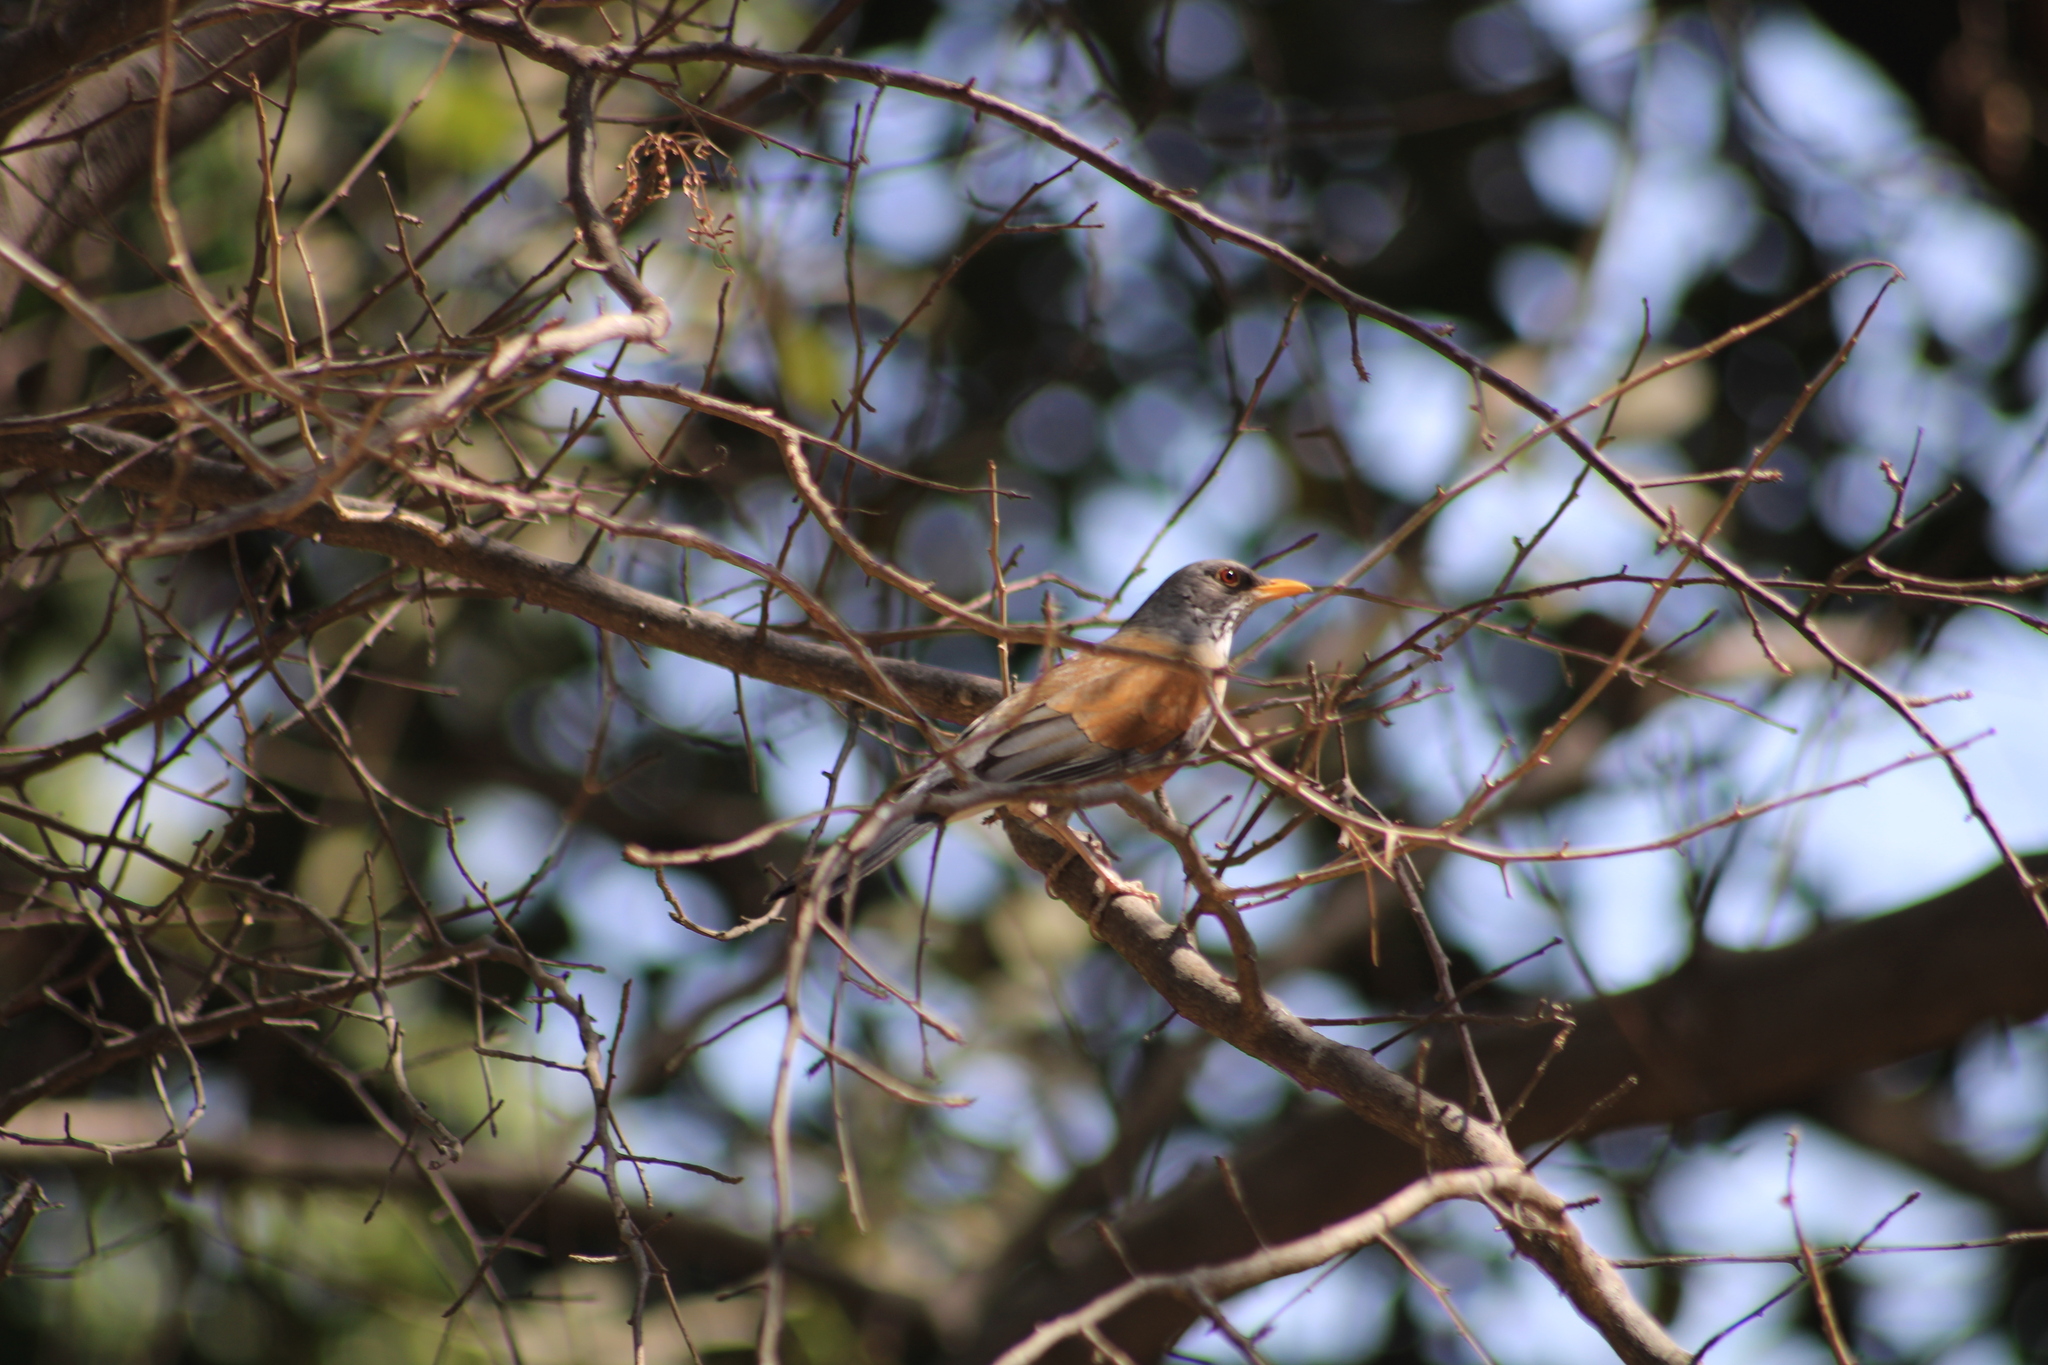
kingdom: Animalia
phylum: Chordata
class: Aves
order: Passeriformes
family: Turdidae
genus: Turdus
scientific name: Turdus rufopalliatus
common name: Rufous-backed robin
